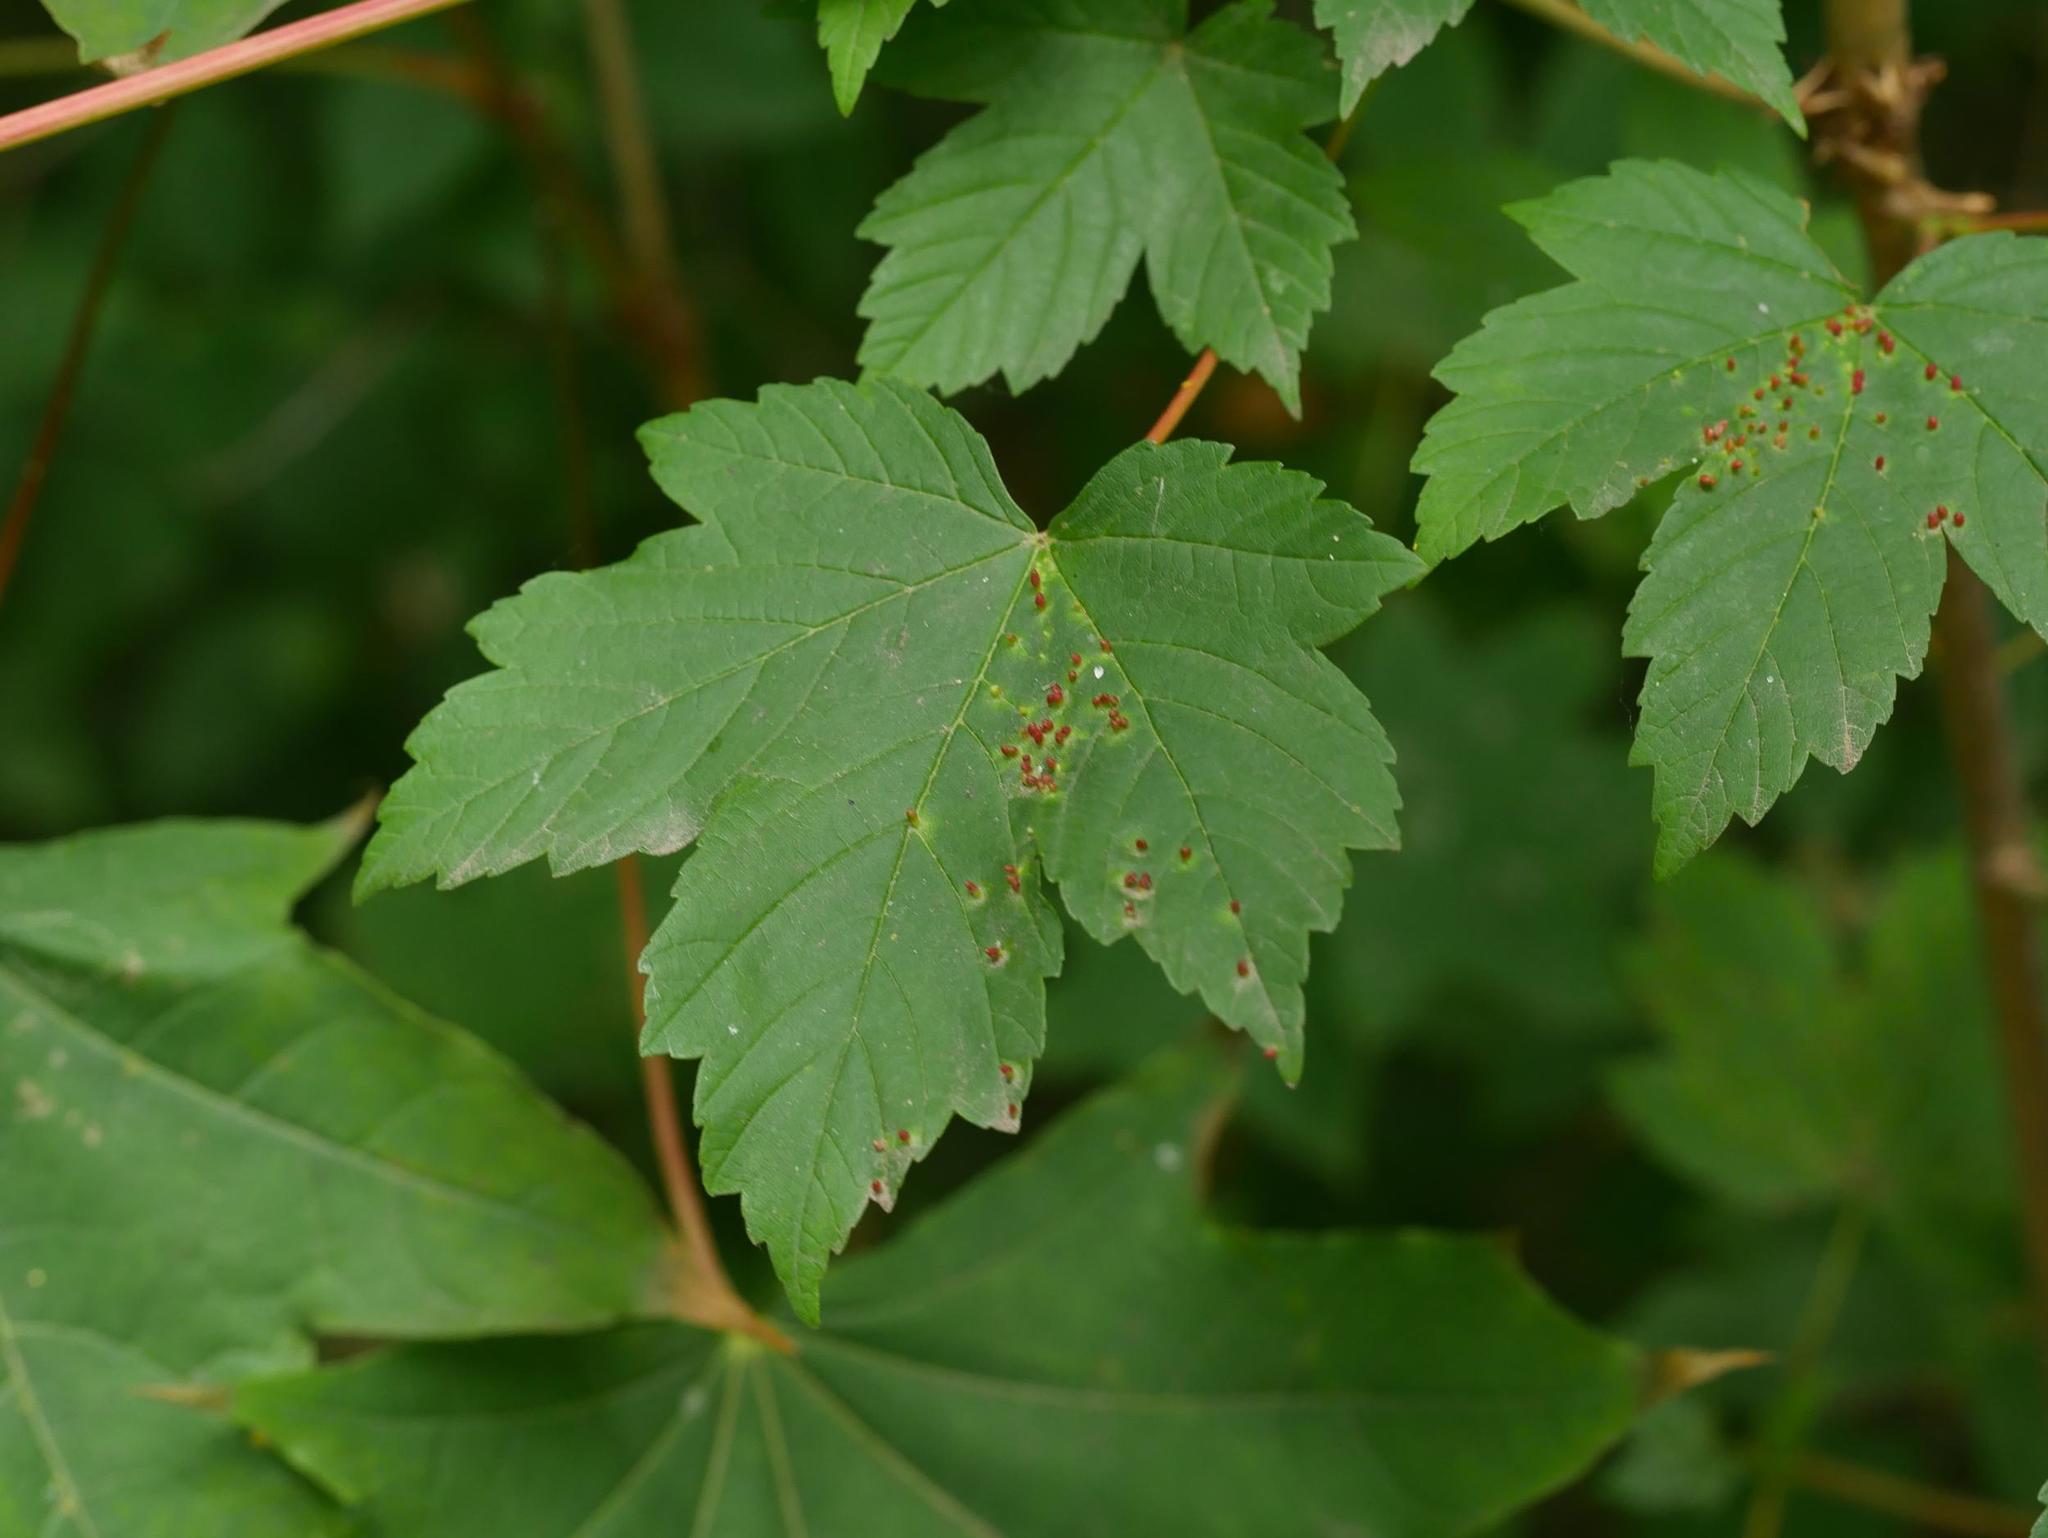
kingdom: Plantae
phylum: Tracheophyta
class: Magnoliopsida
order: Sapindales
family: Sapindaceae
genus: Acer
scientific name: Acer pseudoplatanus
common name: Sycamore
